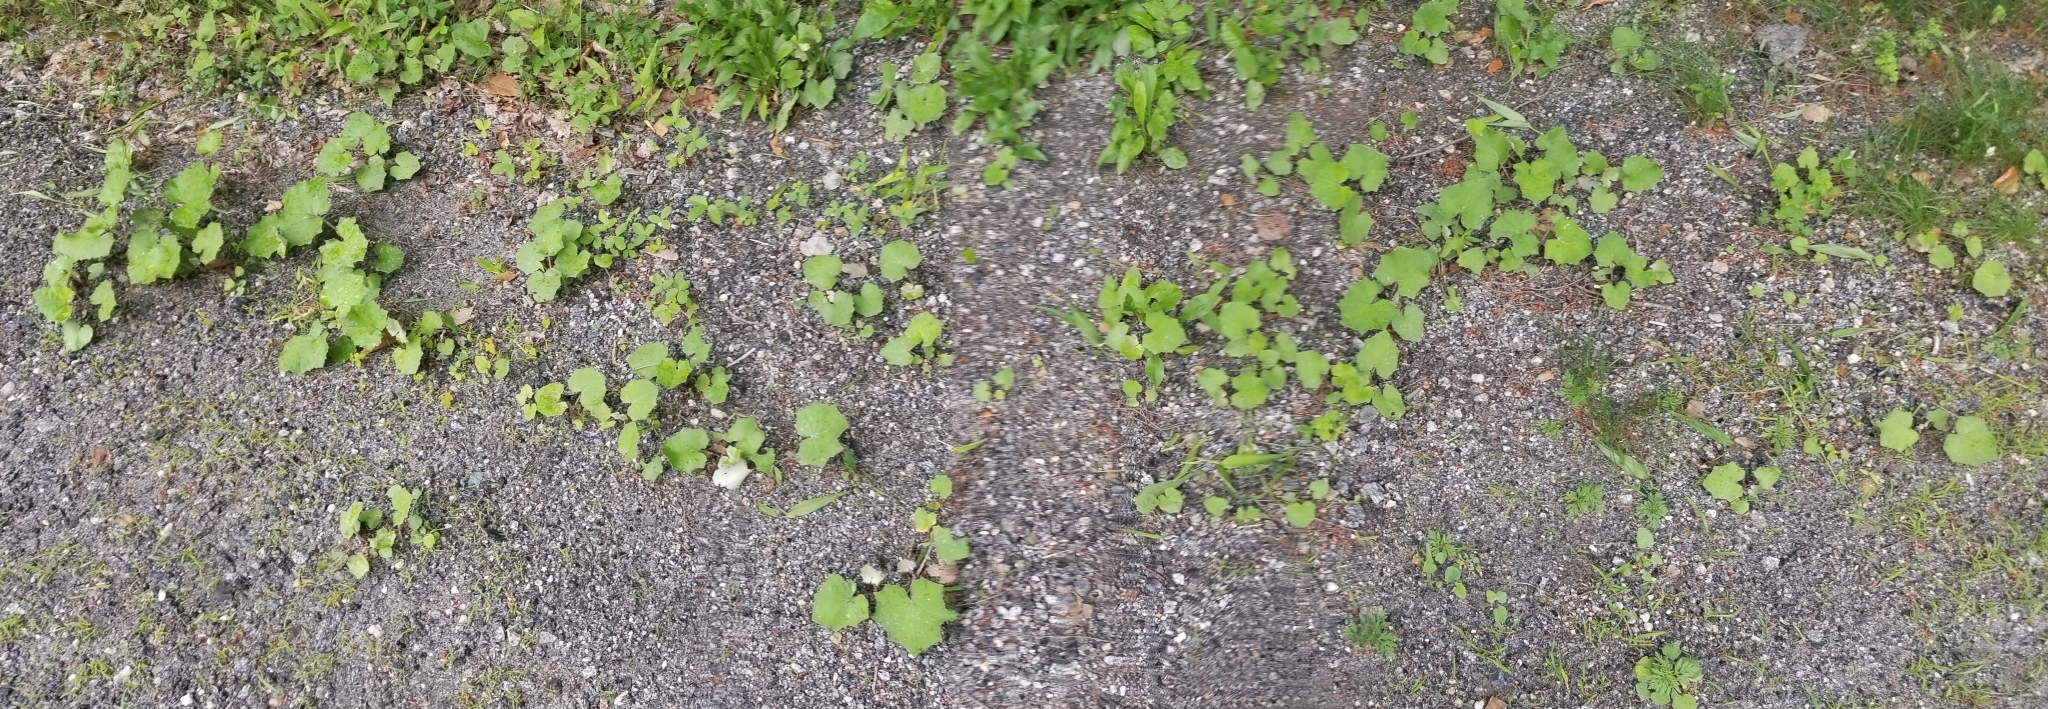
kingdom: Plantae
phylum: Tracheophyta
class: Magnoliopsida
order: Asterales
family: Asteraceae
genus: Tussilago
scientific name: Tussilago farfara
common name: Coltsfoot
